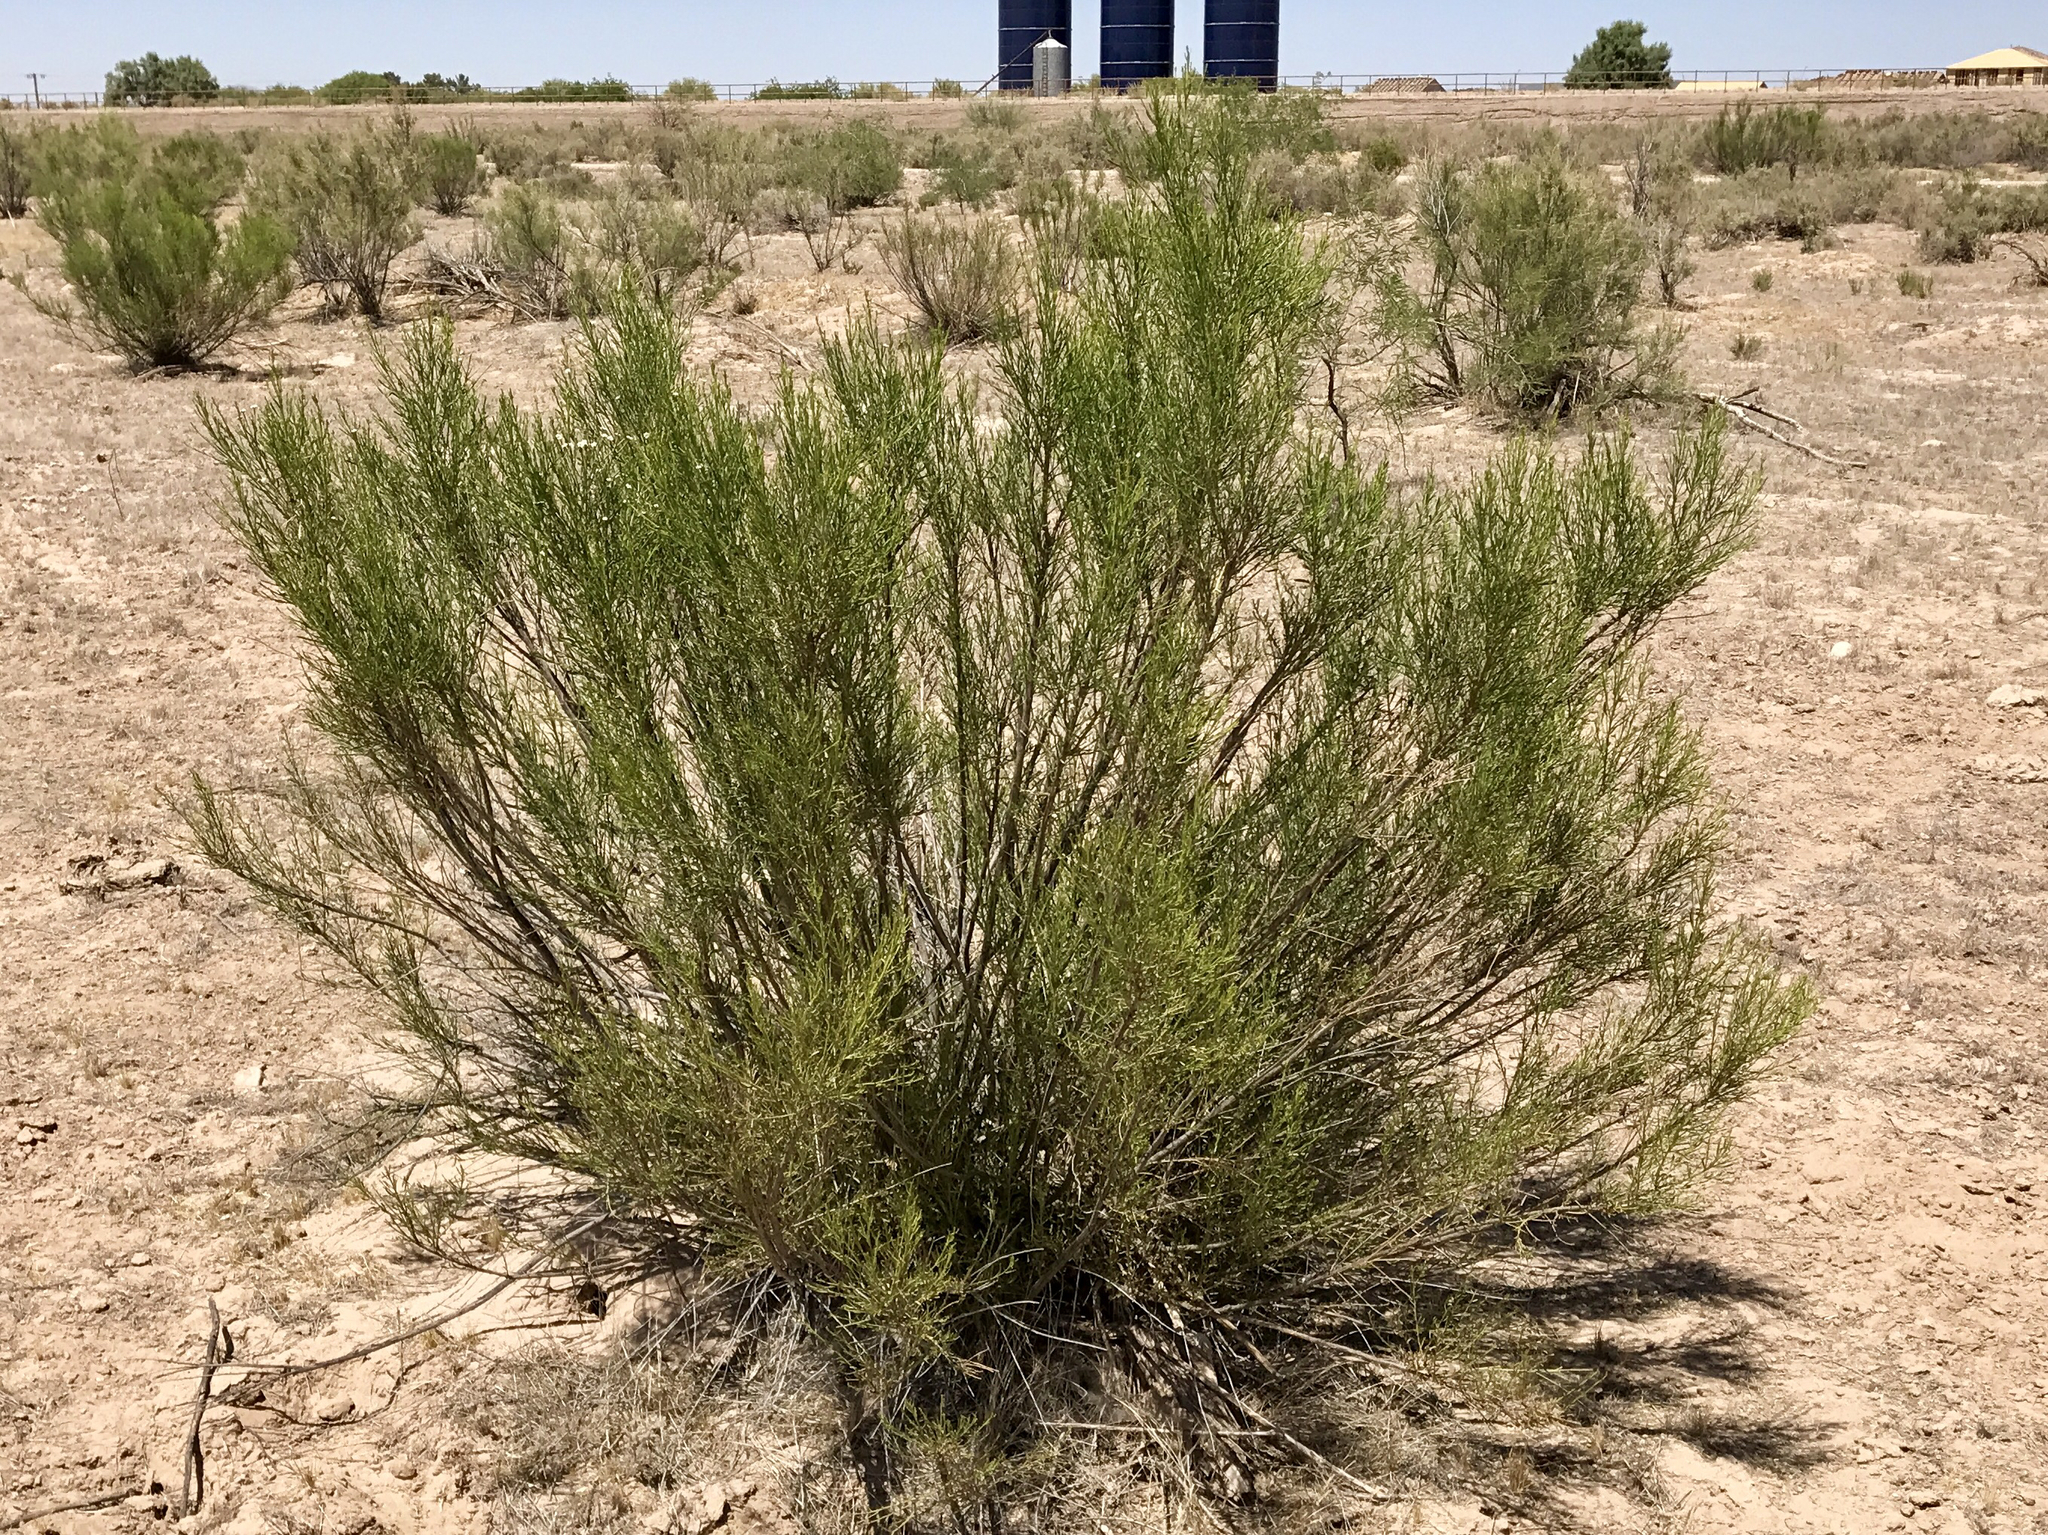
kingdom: Plantae
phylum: Tracheophyta
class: Magnoliopsida
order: Asterales
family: Asteraceae
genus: Baccharis
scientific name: Baccharis sarothroides
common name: Desert-broom
